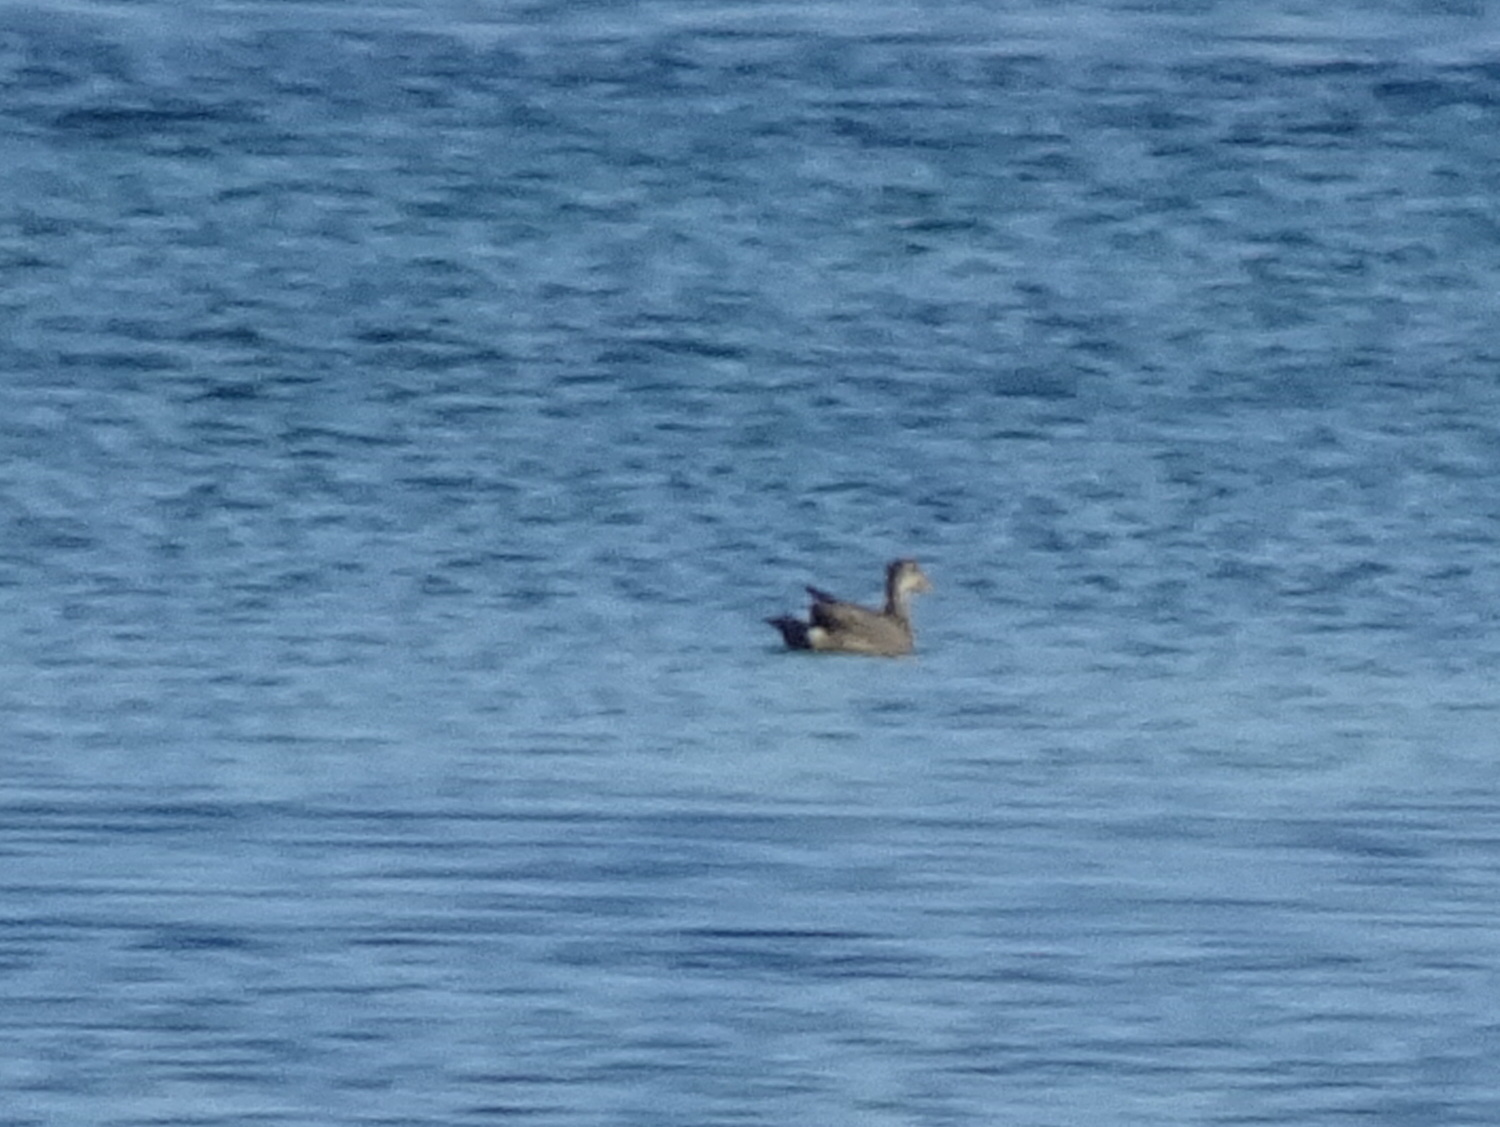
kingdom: Animalia
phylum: Chordata
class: Aves
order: Anseriformes
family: Anatidae
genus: Anas
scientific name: Anas
